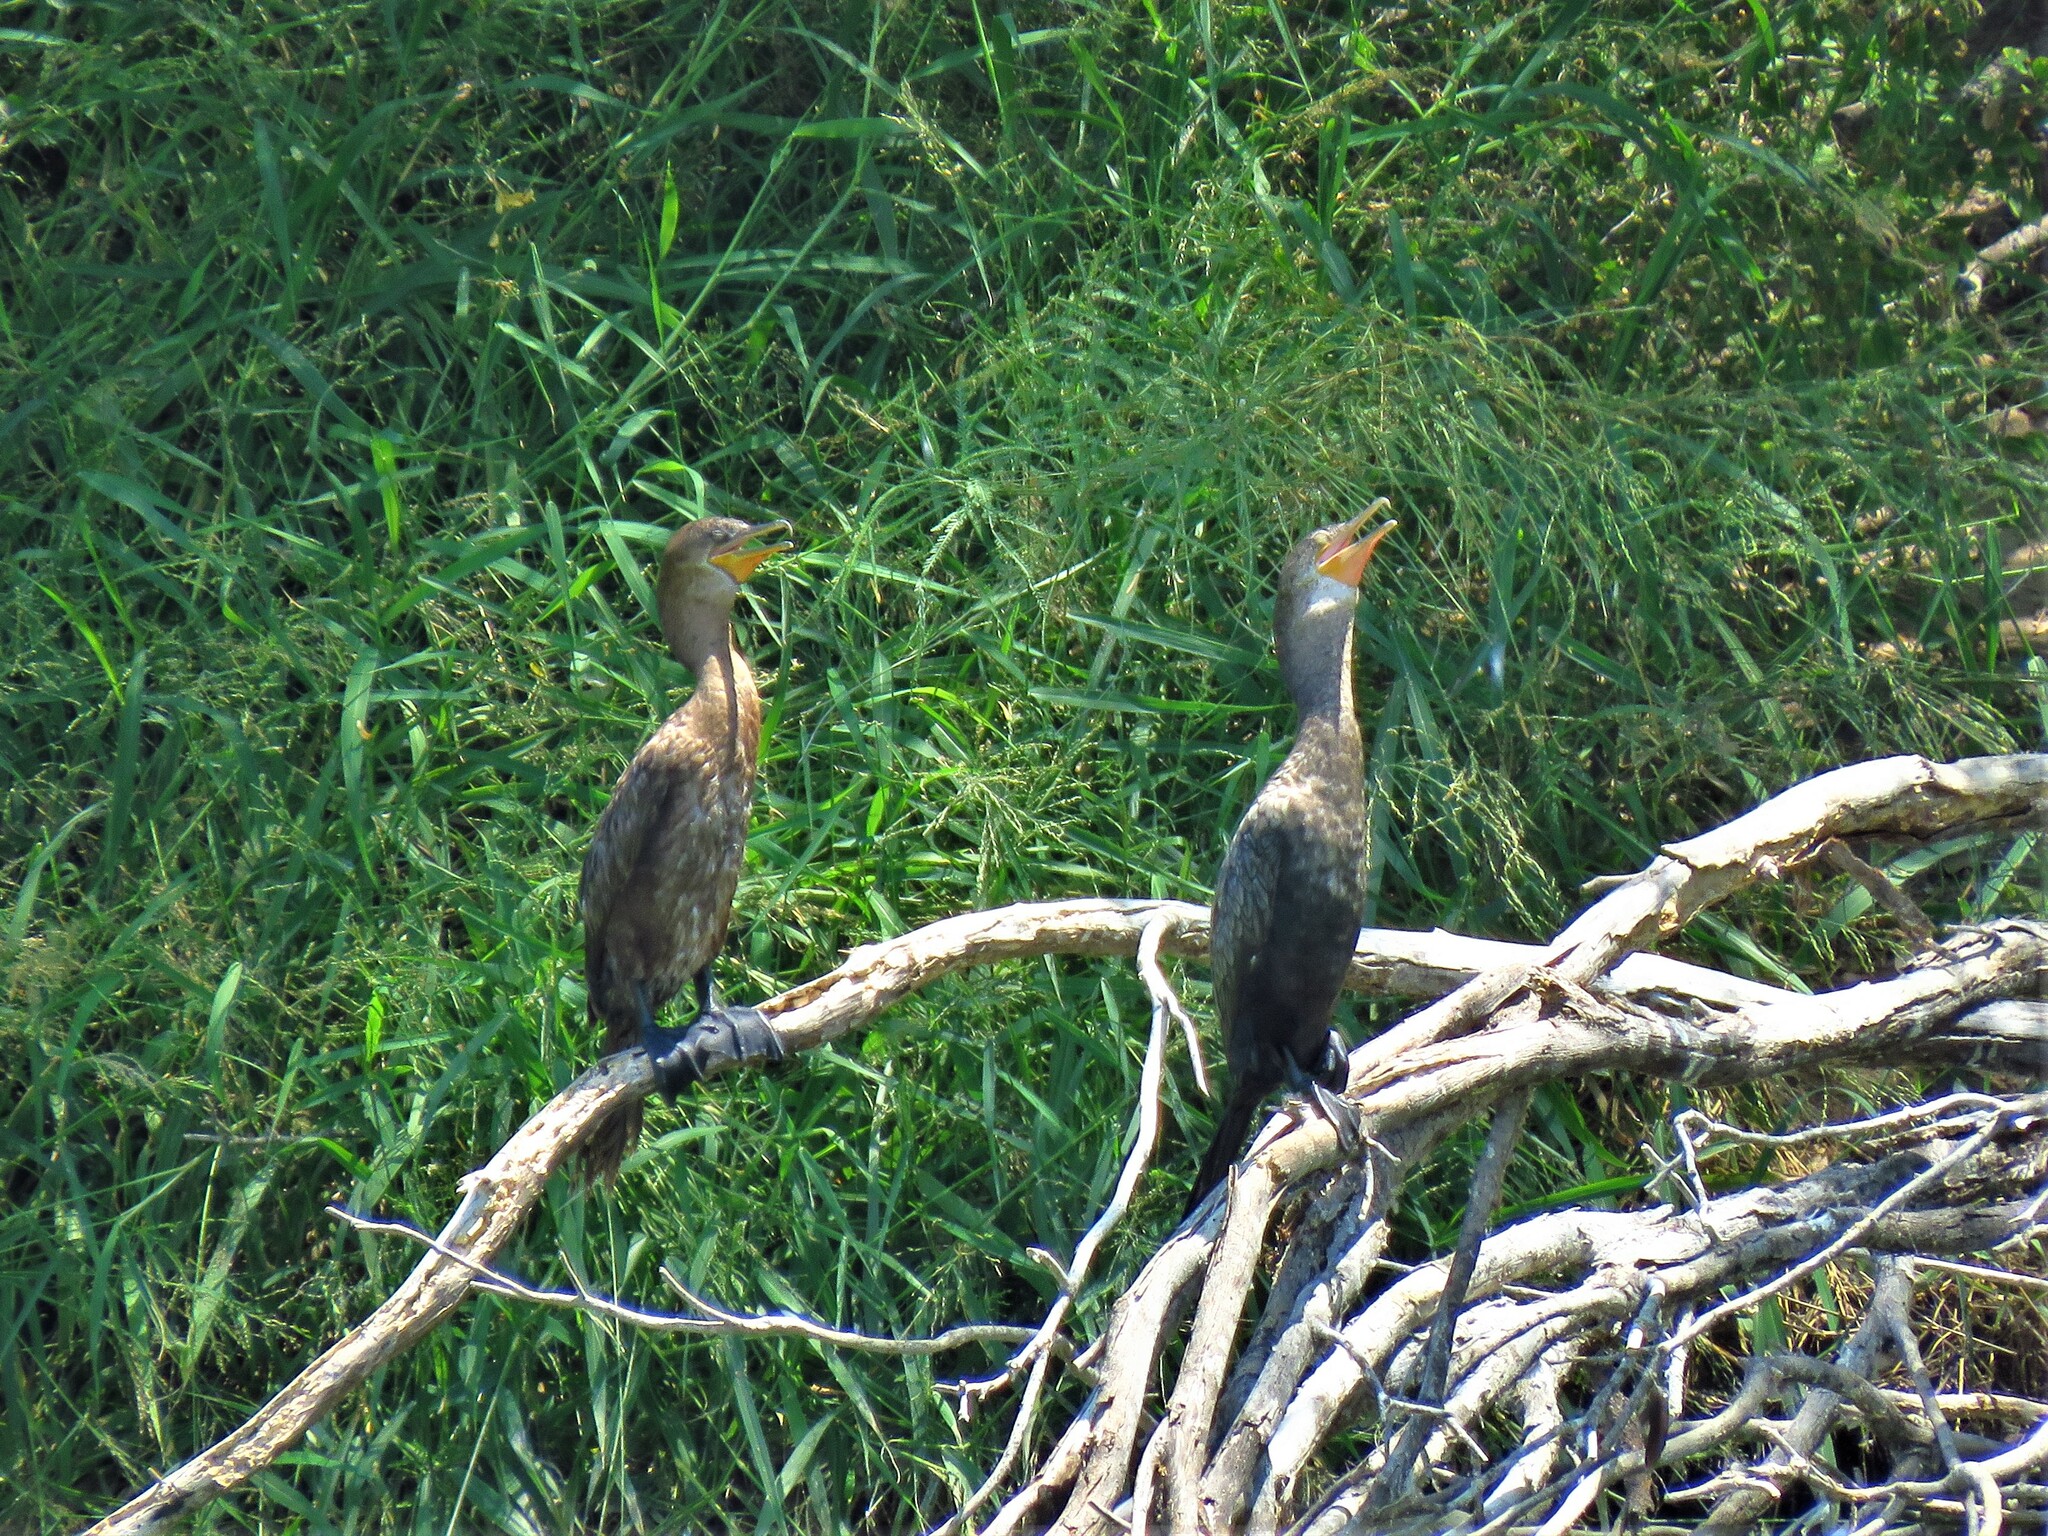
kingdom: Animalia
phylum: Chordata
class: Aves
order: Suliformes
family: Phalacrocoracidae
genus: Phalacrocorax
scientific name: Phalacrocorax brasilianus
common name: Neotropic cormorant
